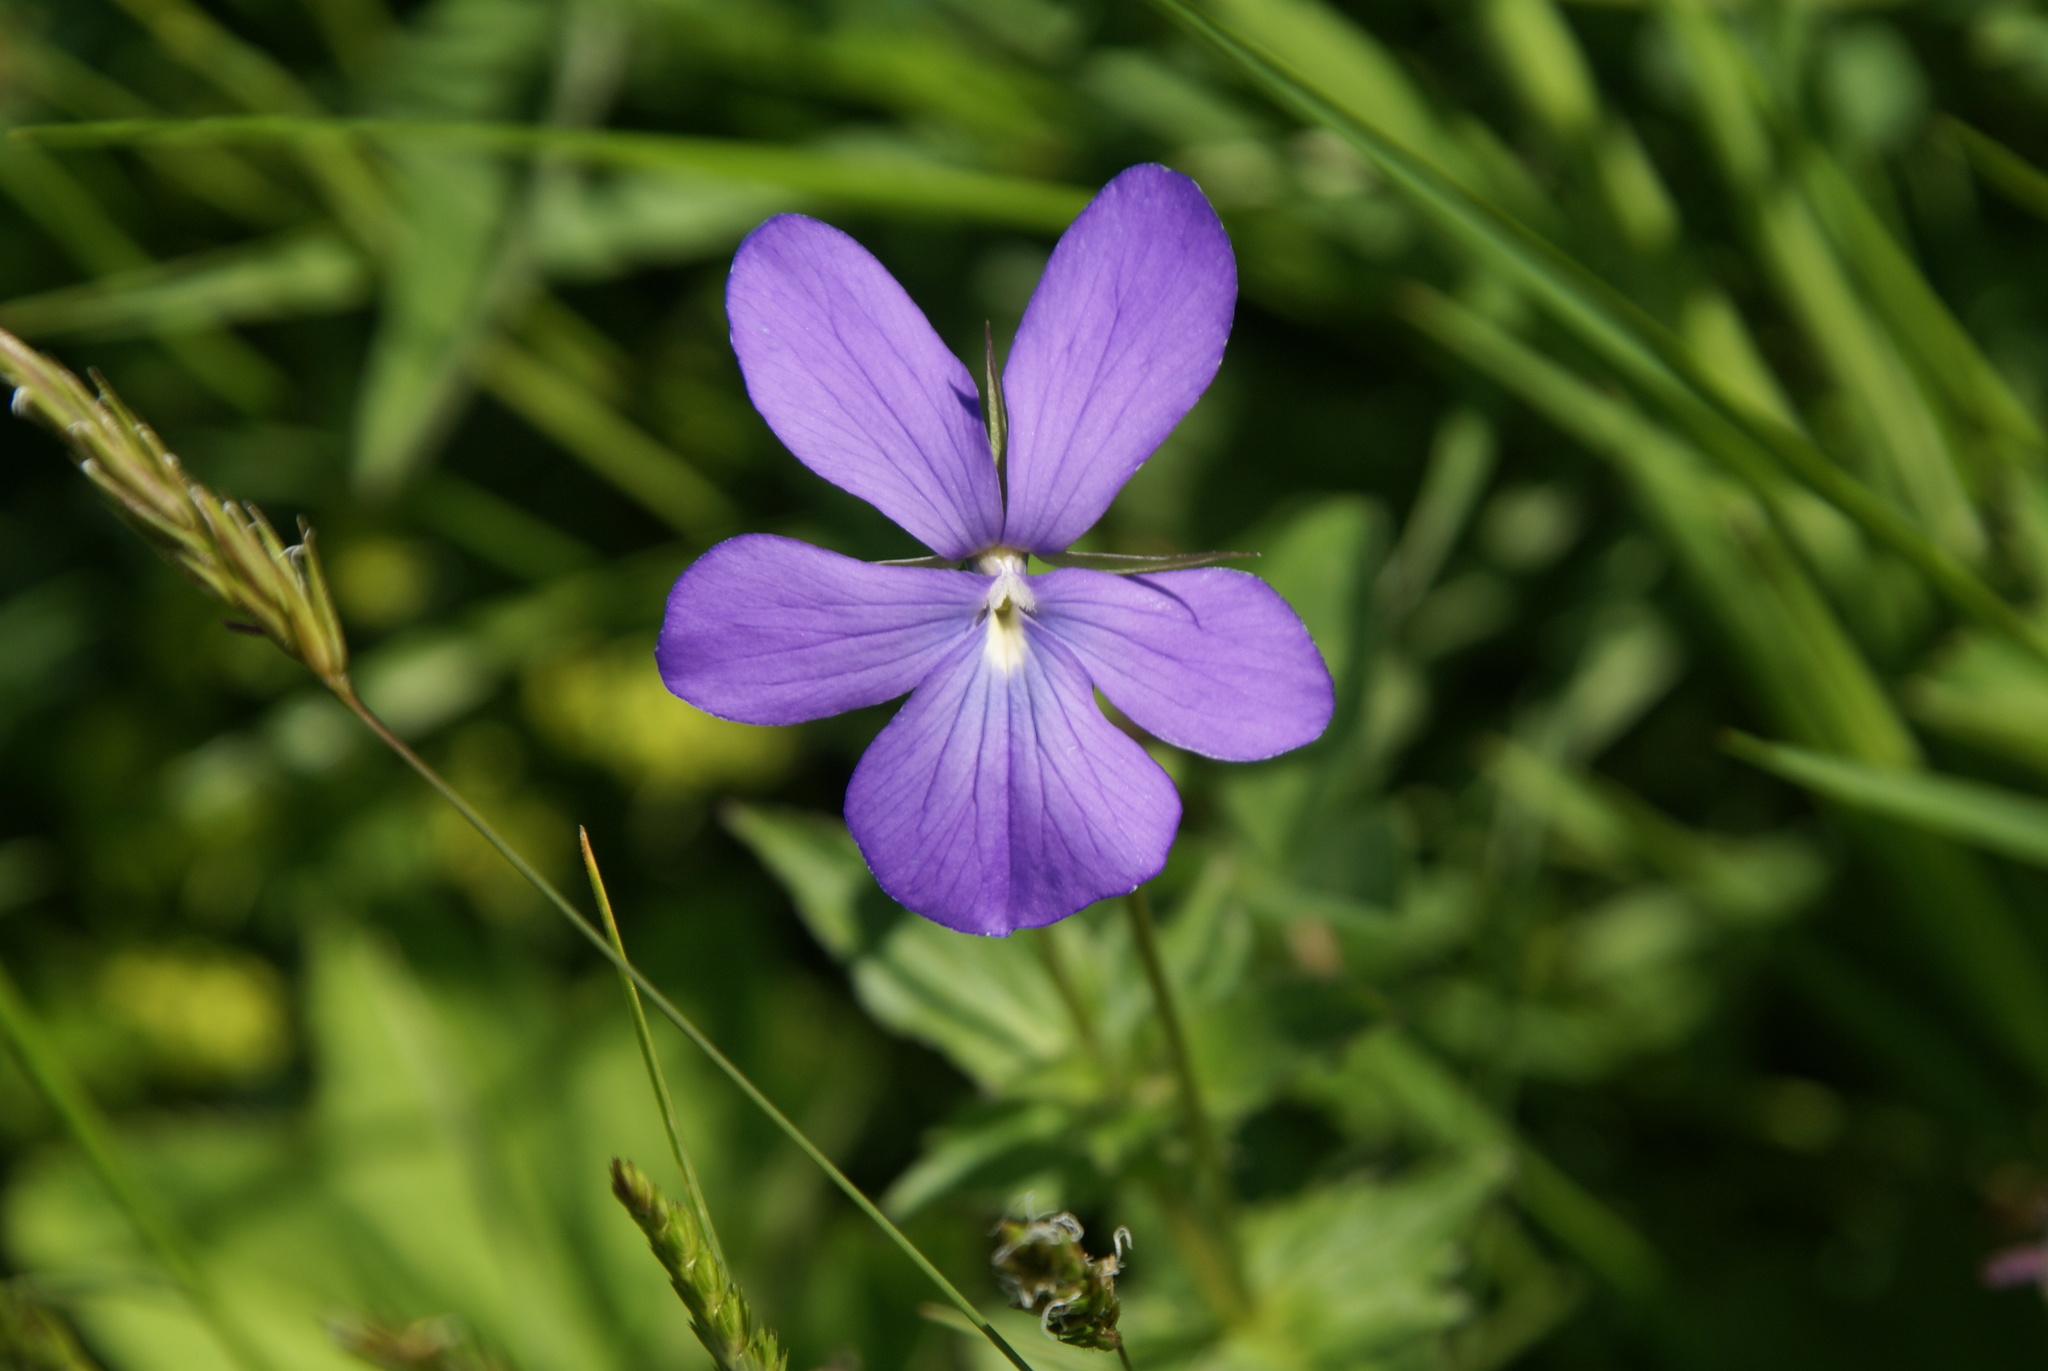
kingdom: Plantae
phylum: Tracheophyta
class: Magnoliopsida
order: Malpighiales
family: Violaceae
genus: Viola
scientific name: Viola cornuta
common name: Horned pansy
